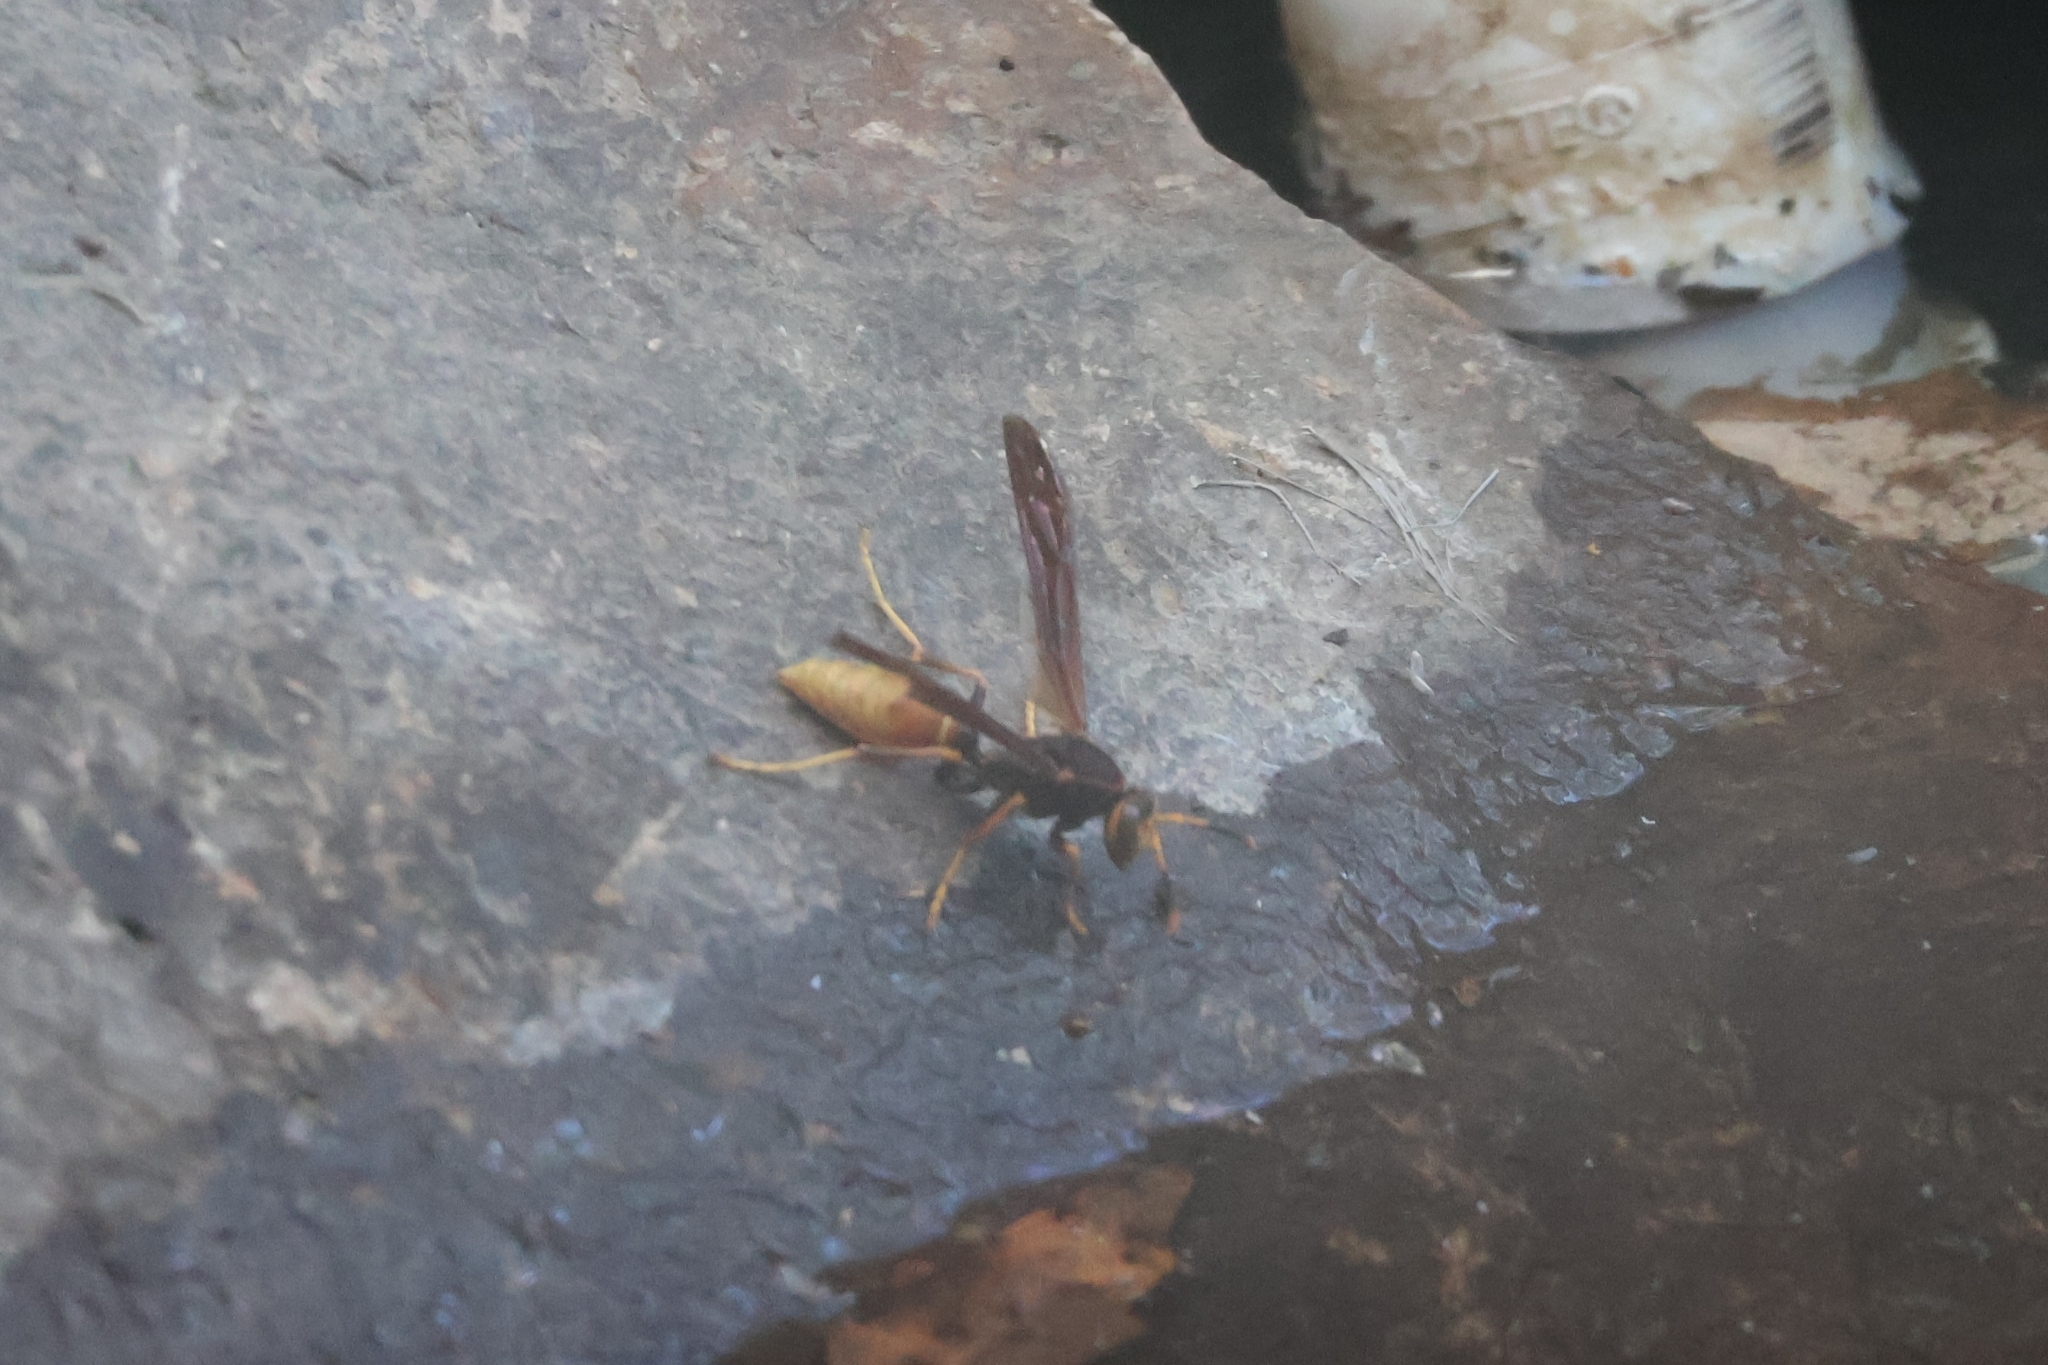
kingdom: Animalia
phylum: Arthropoda
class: Insecta
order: Hymenoptera
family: Eumenidae
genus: Polistes
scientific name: Polistes comanchus
